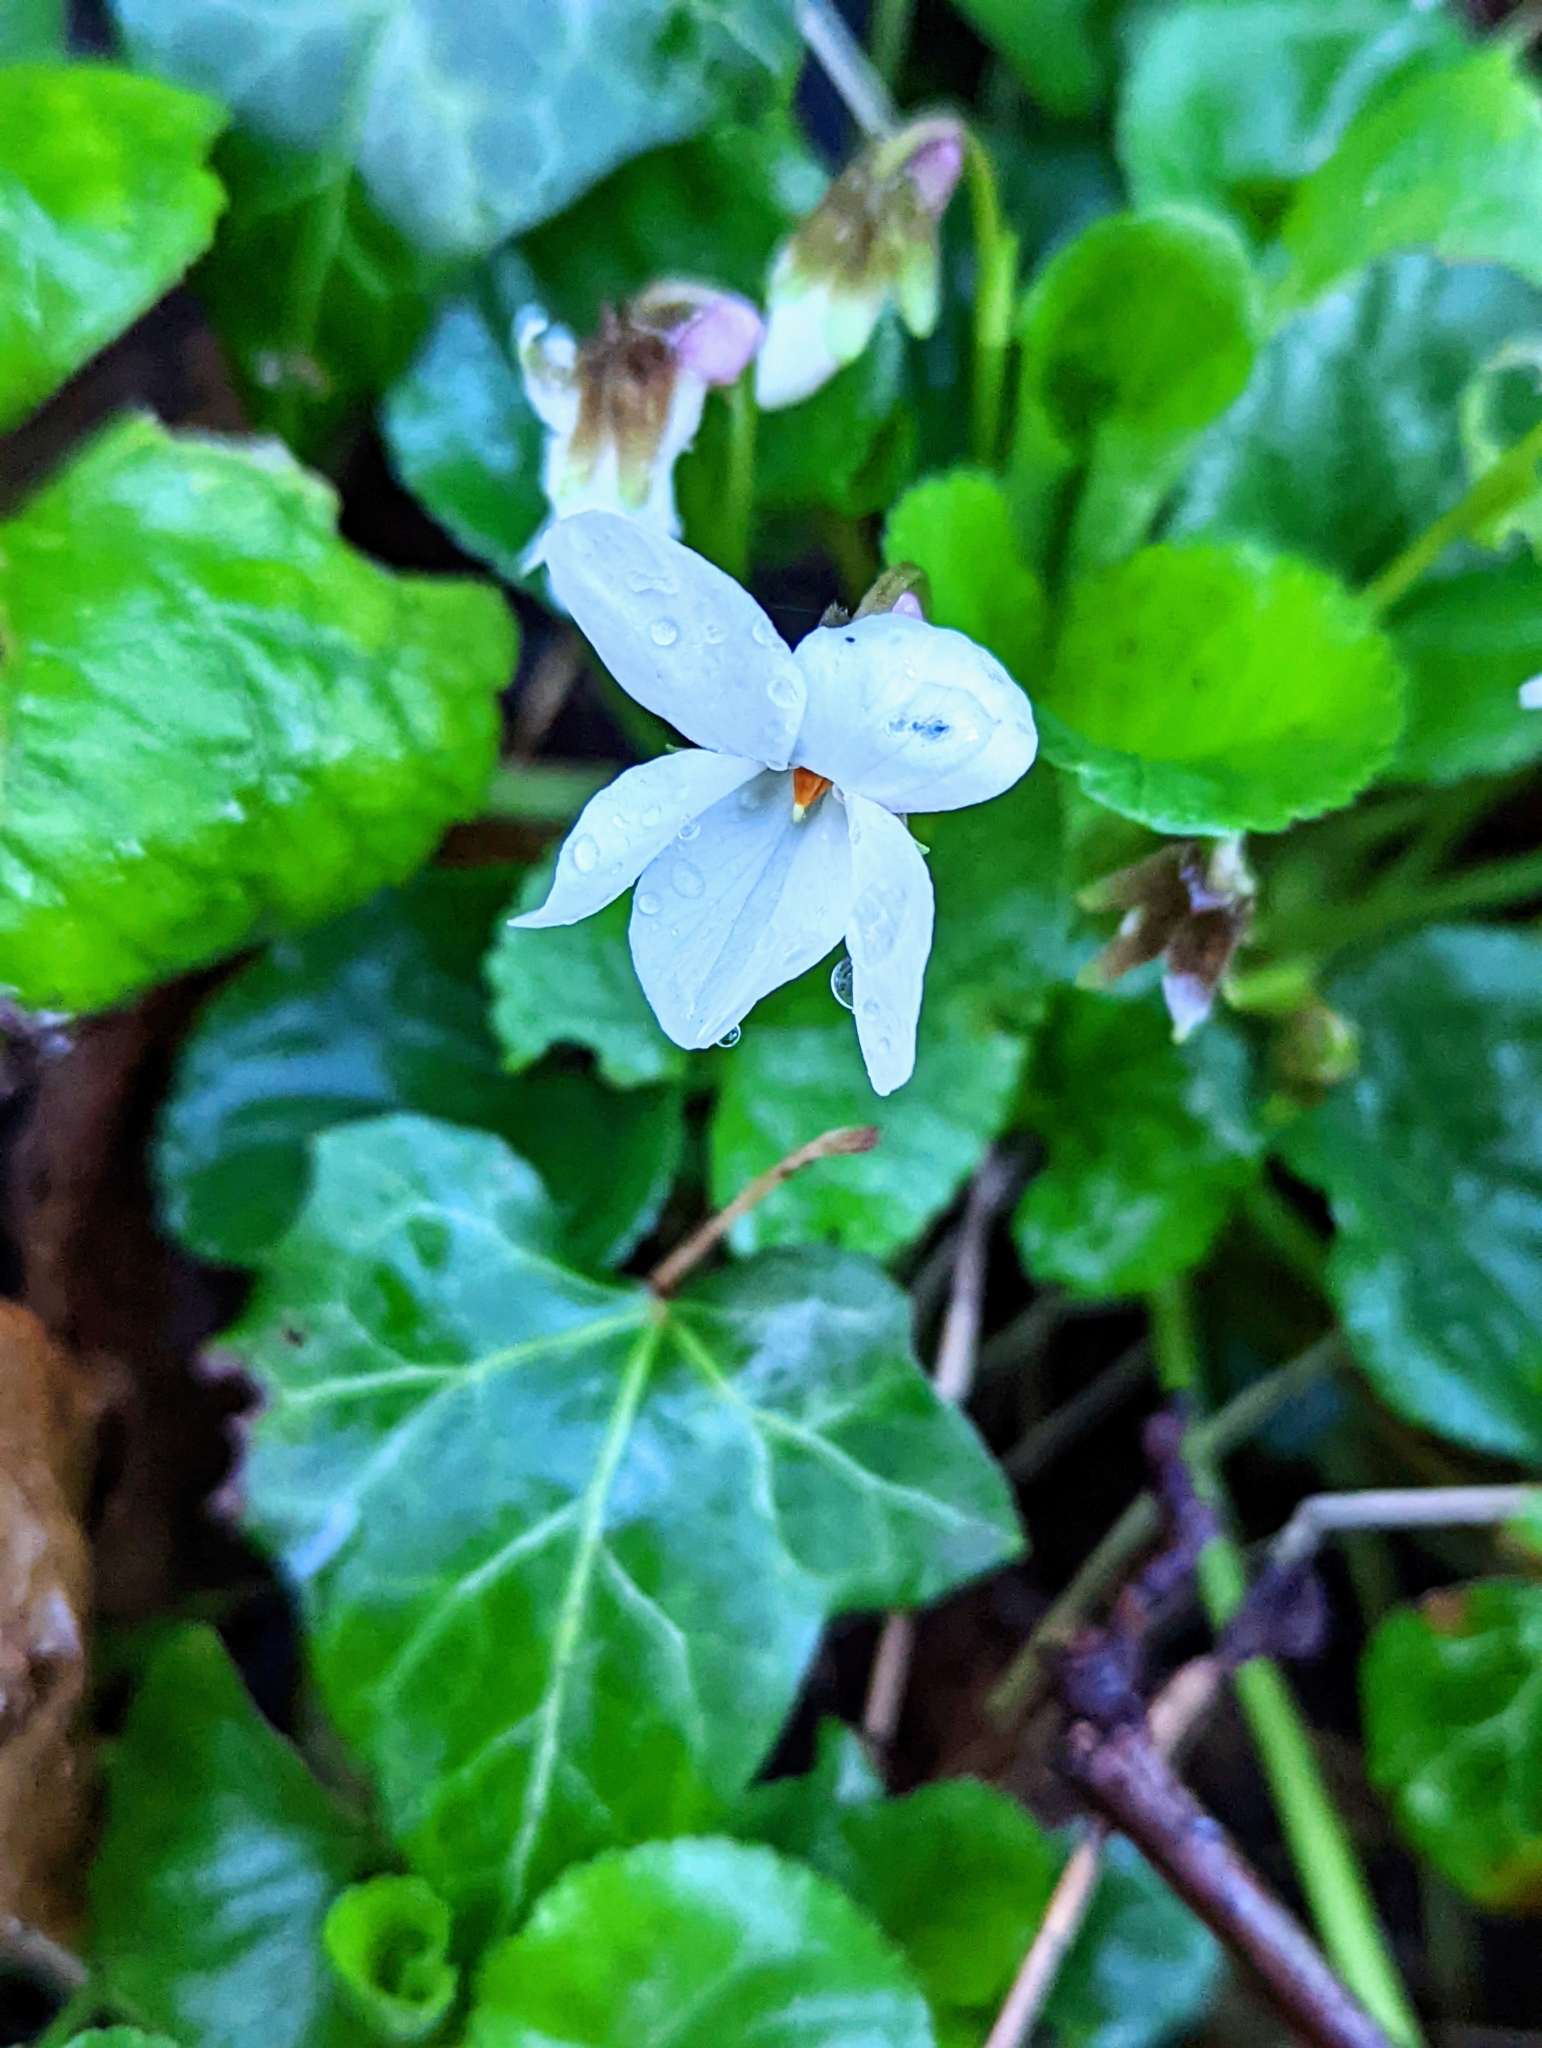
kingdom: Plantae
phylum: Tracheophyta
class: Magnoliopsida
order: Malpighiales
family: Violaceae
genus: Viola
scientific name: Viola odorata
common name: Sweet violet
